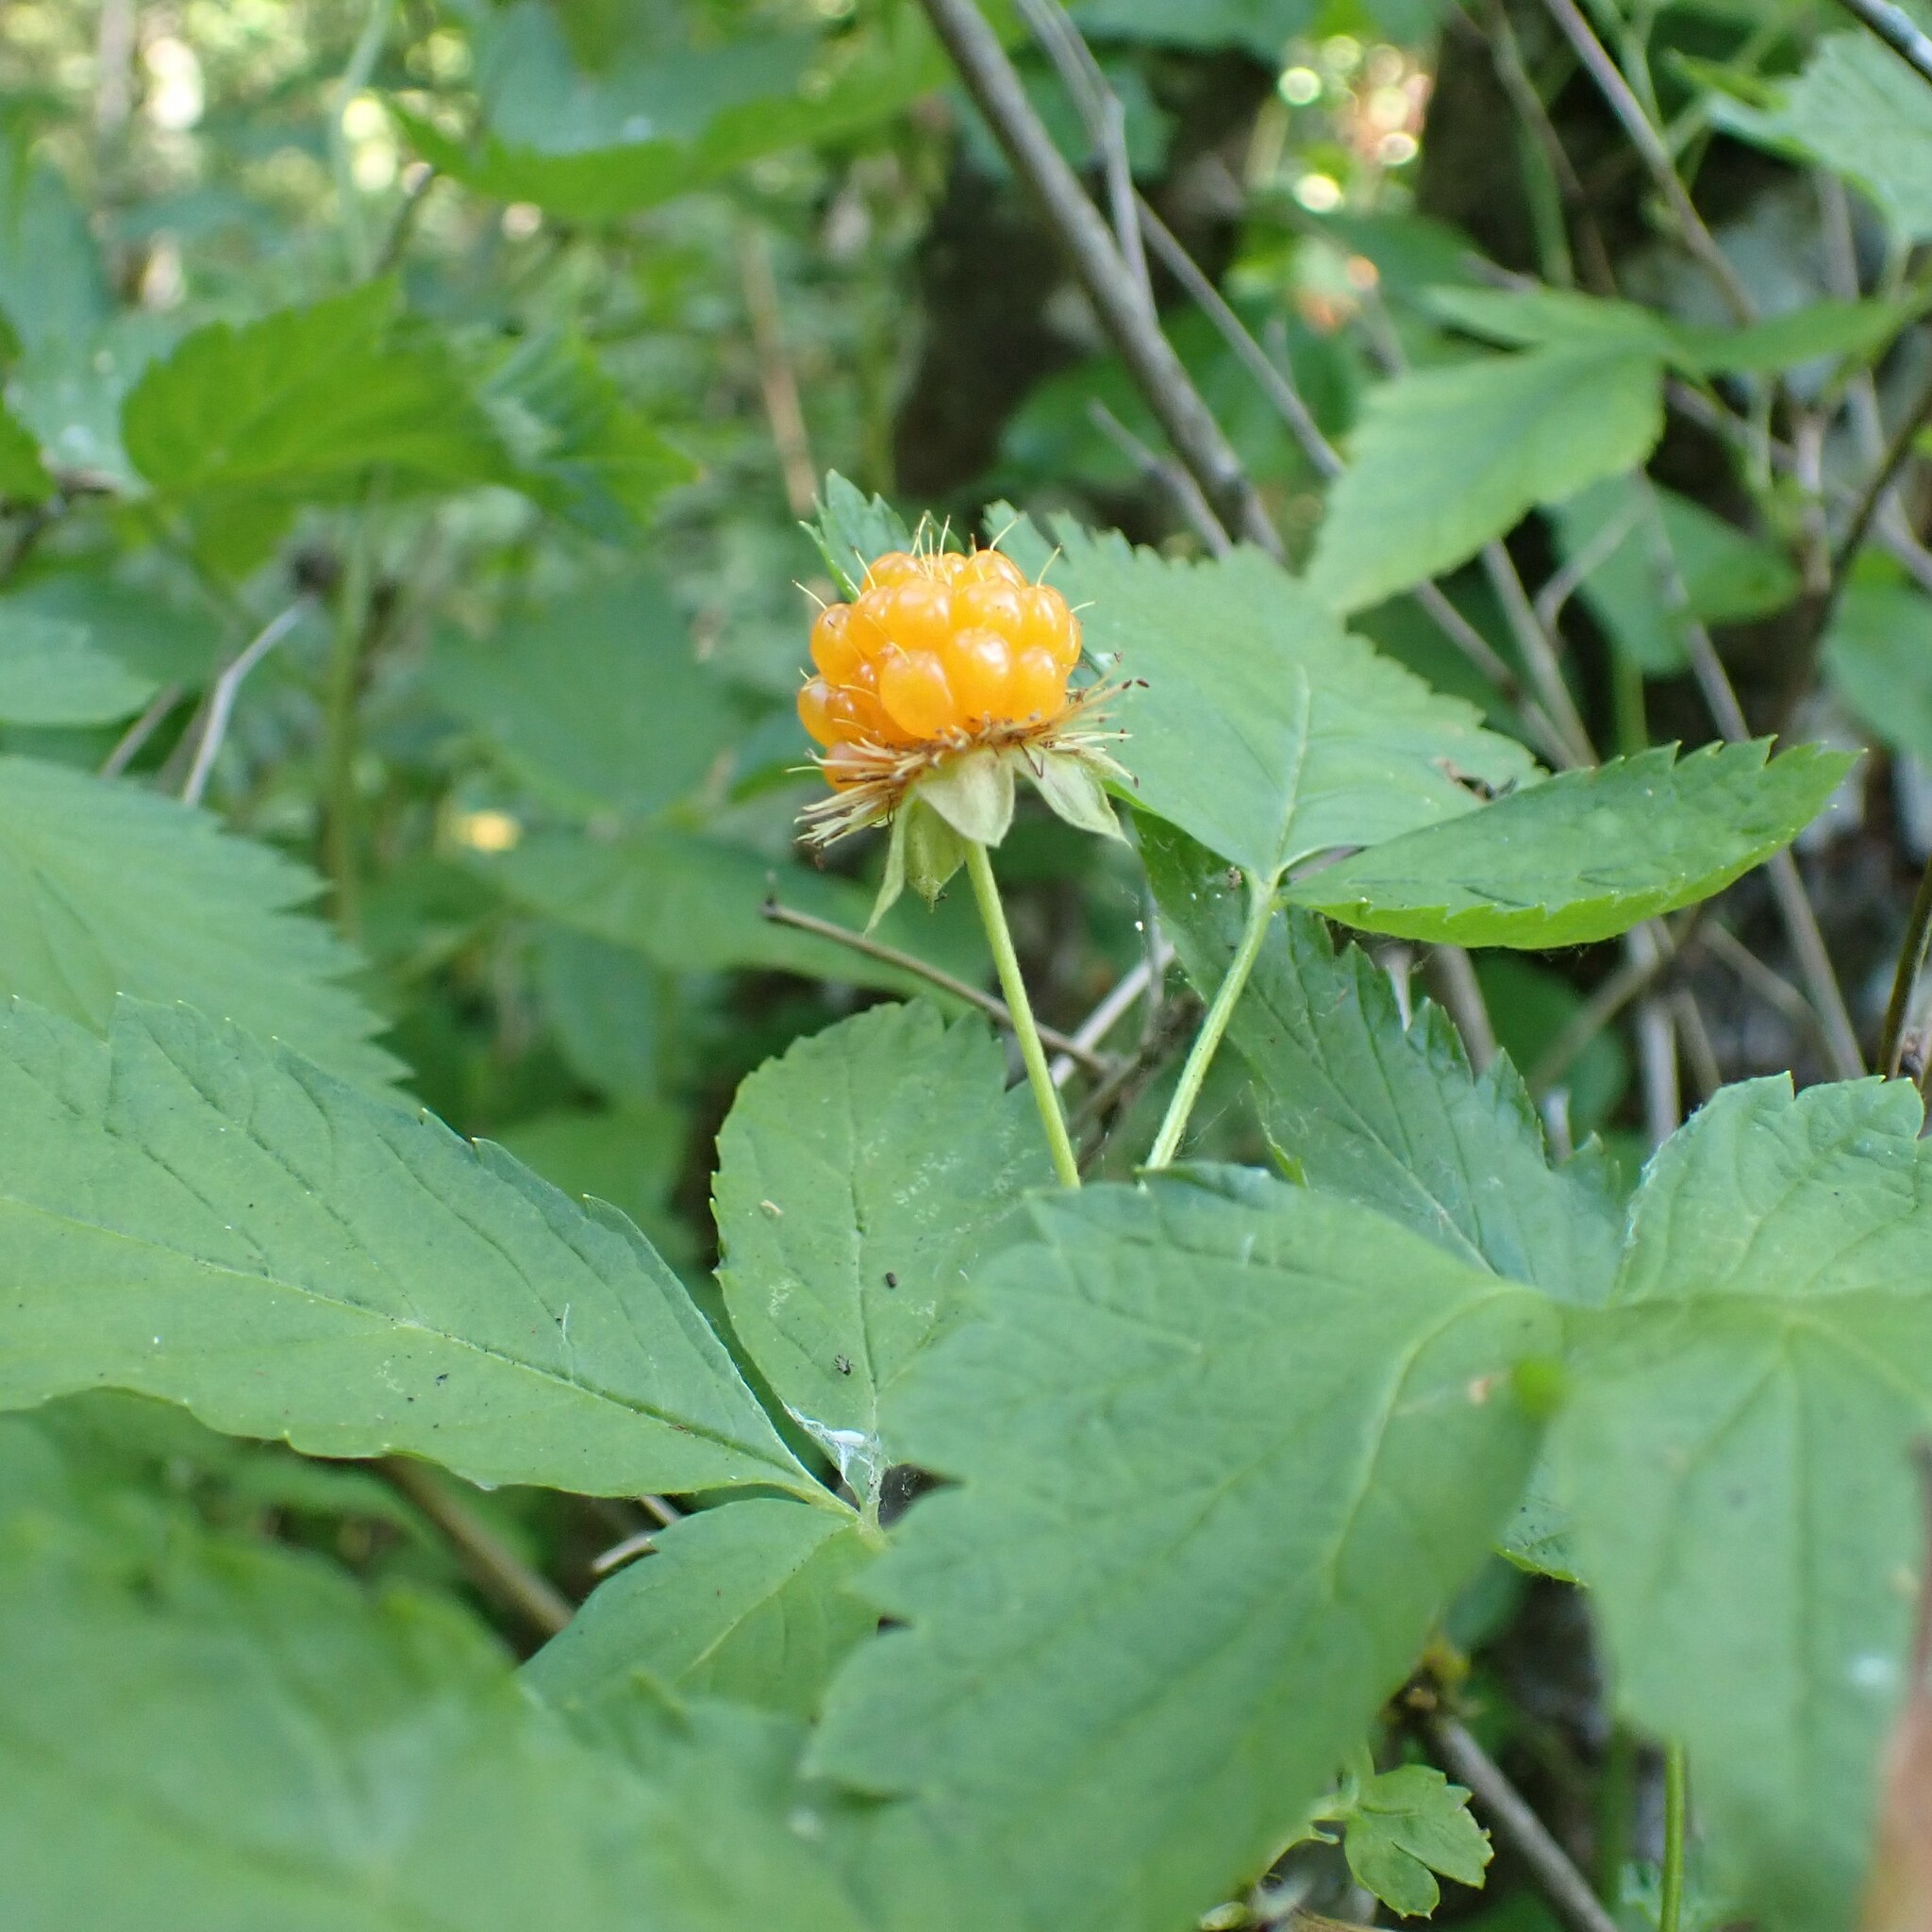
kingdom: Plantae
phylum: Tracheophyta
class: Magnoliopsida
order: Rosales
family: Rosaceae
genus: Rubus
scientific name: Rubus spectabilis
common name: Salmonberry
